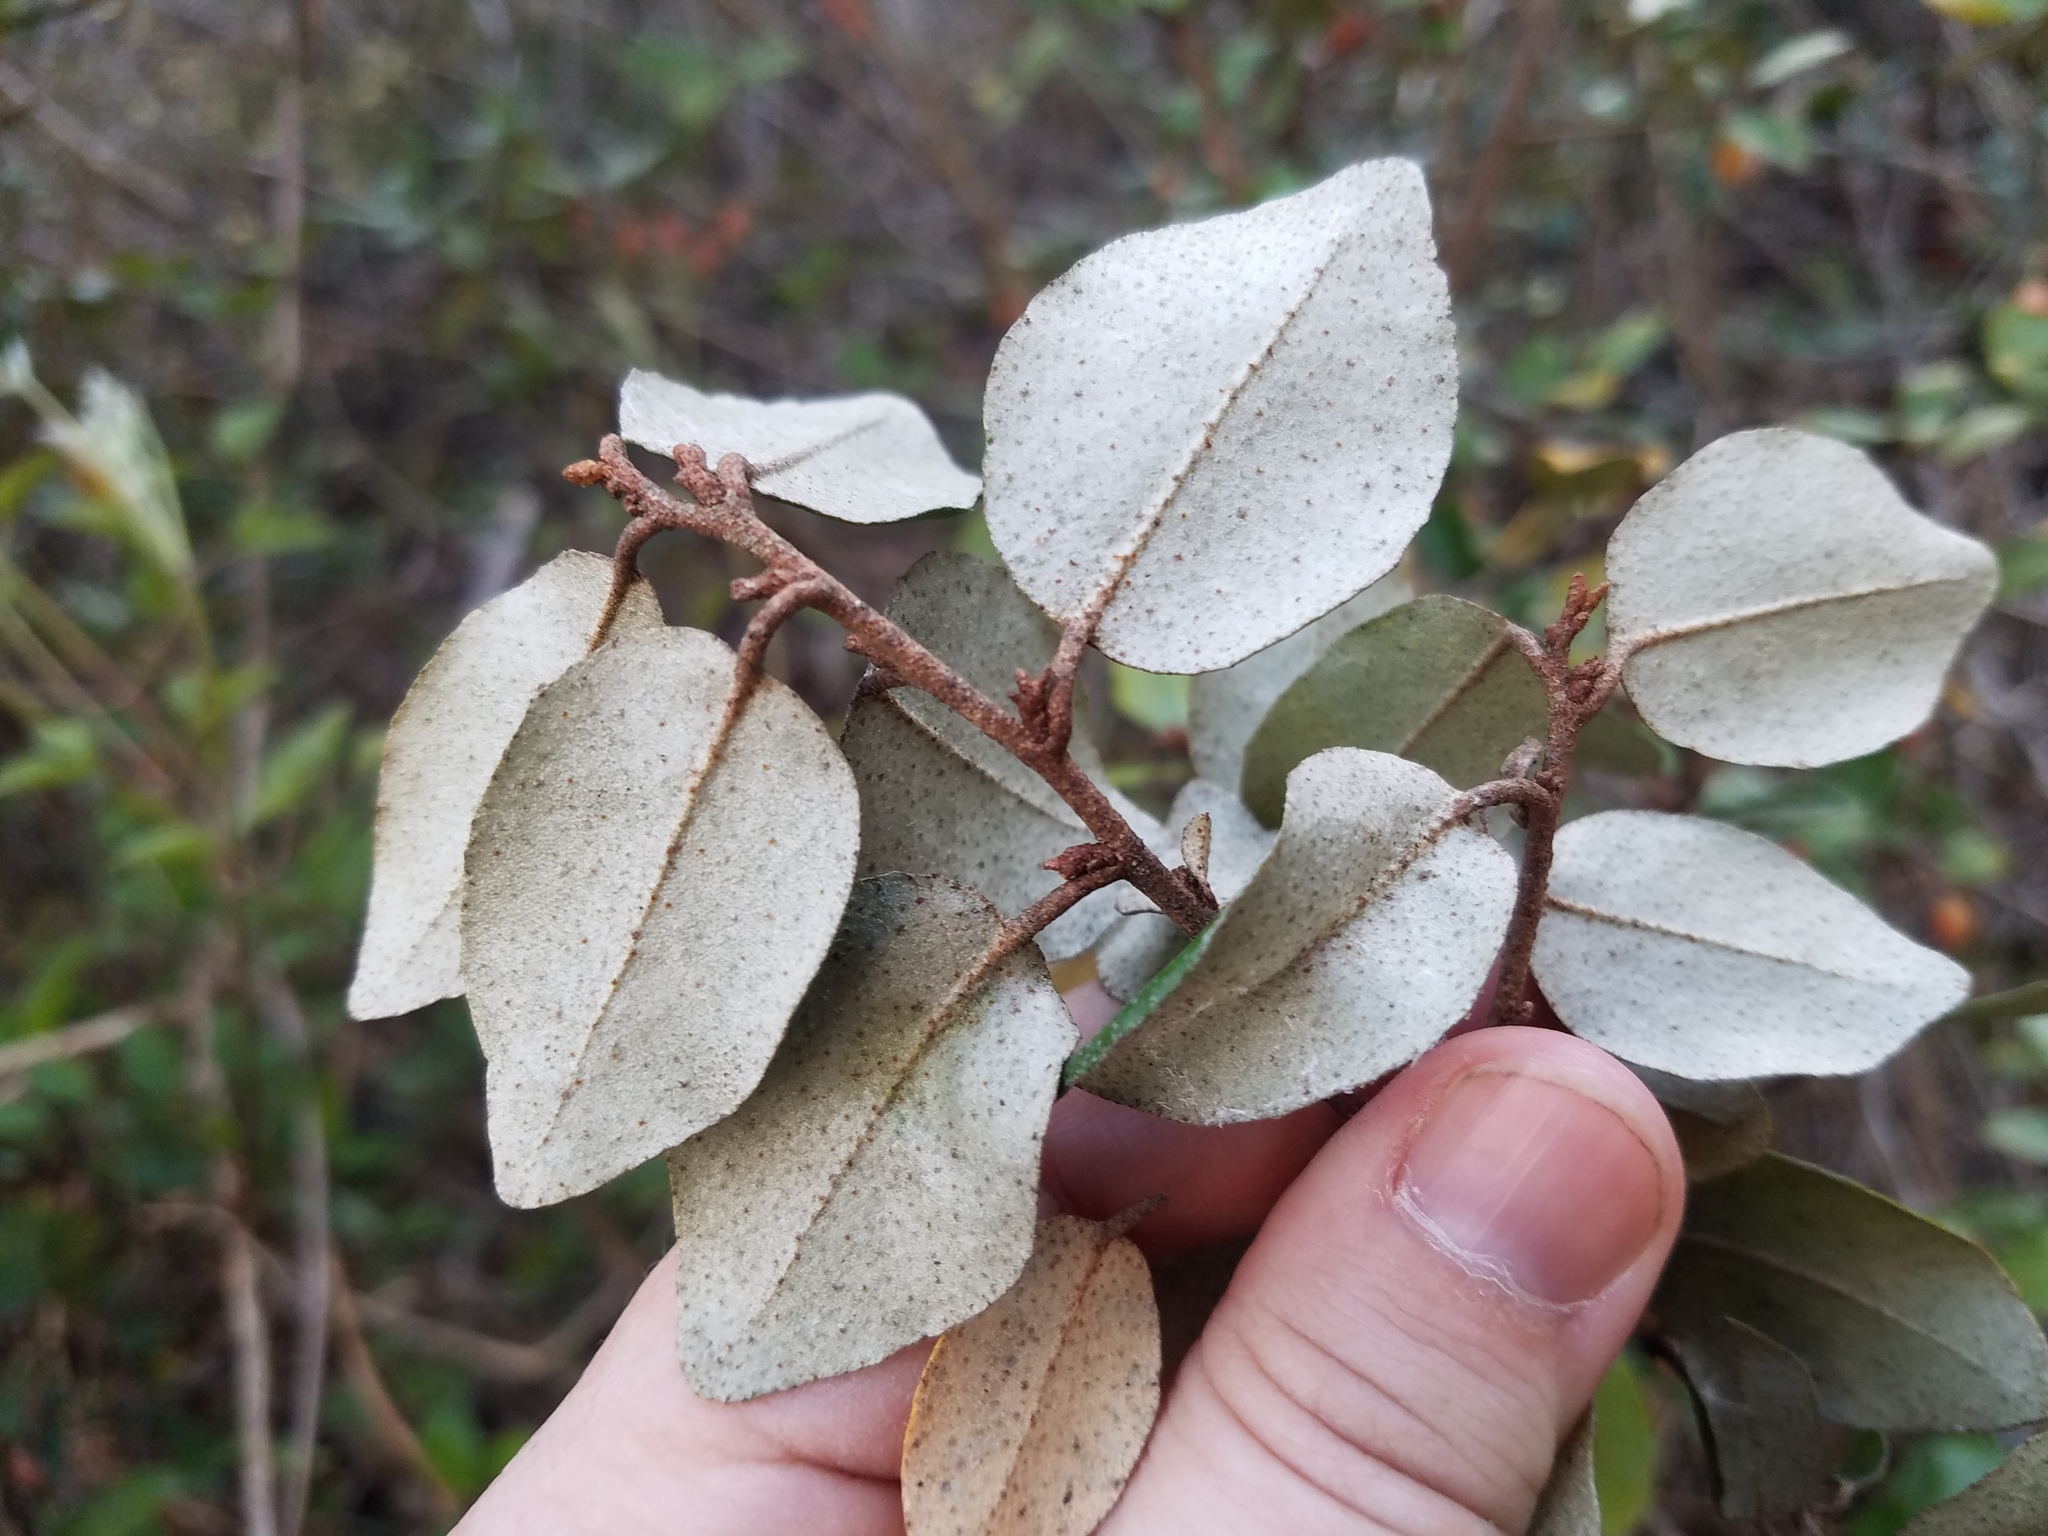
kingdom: Plantae
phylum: Tracheophyta
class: Magnoliopsida
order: Rosales
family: Elaeagnaceae
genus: Elaeagnus
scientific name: Elaeagnus pungens
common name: Spiny oleaster
